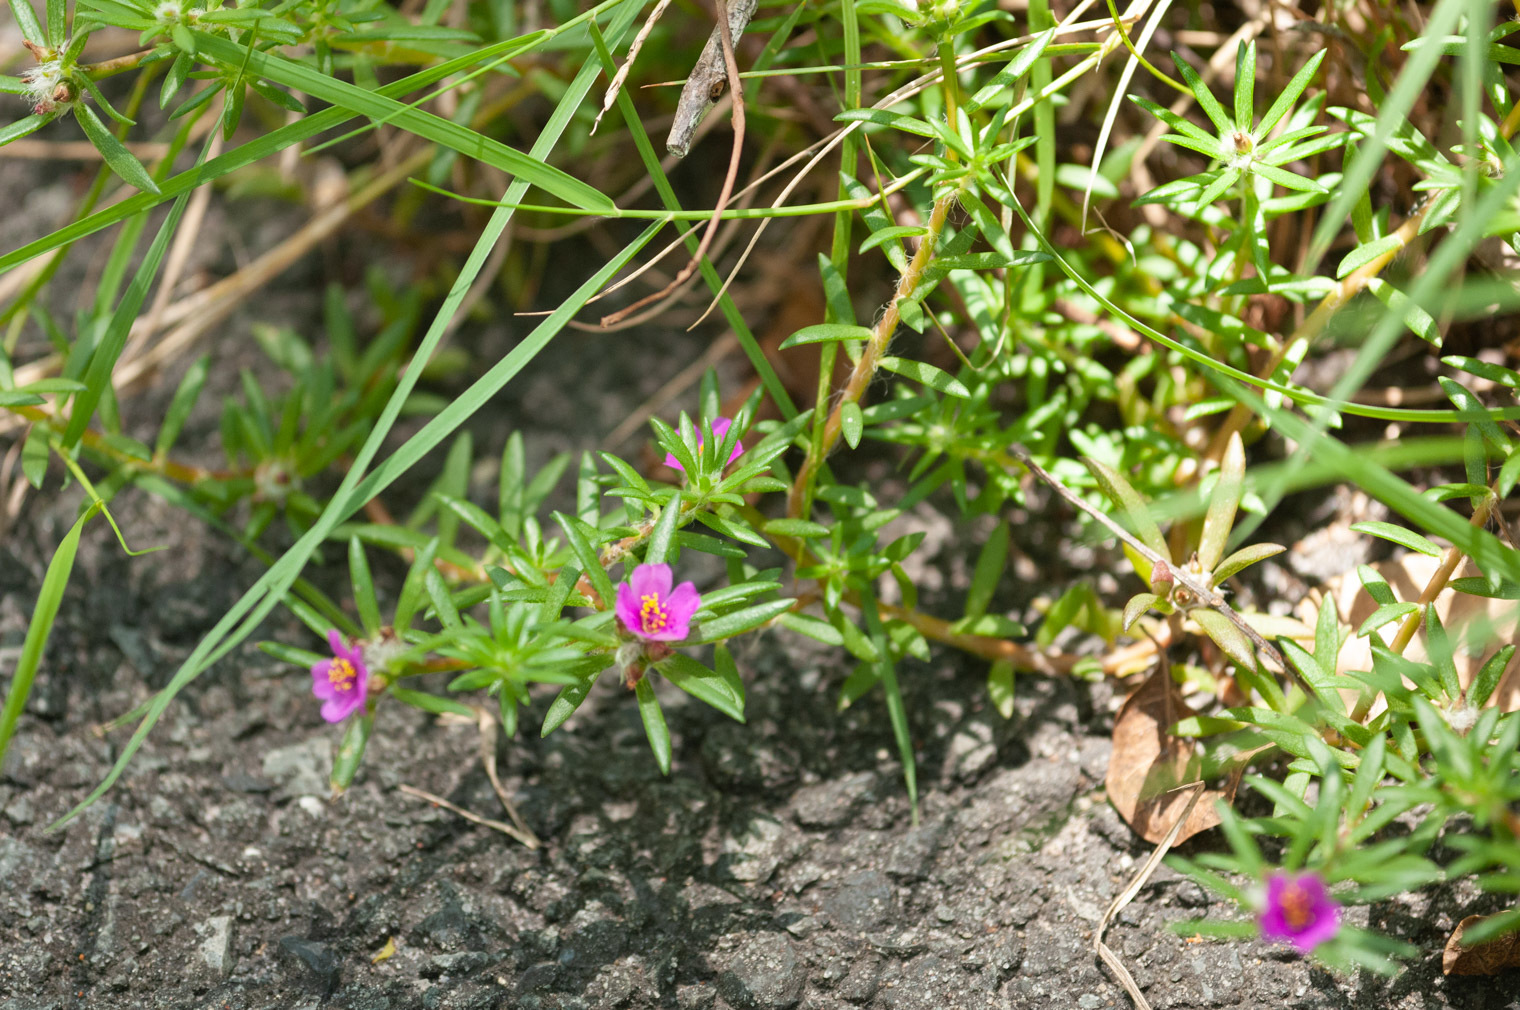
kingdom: Plantae
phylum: Tracheophyta
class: Magnoliopsida
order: Caryophyllales
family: Portulacaceae
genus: Portulaca
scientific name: Portulaca pilosa
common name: Kiss me quick
